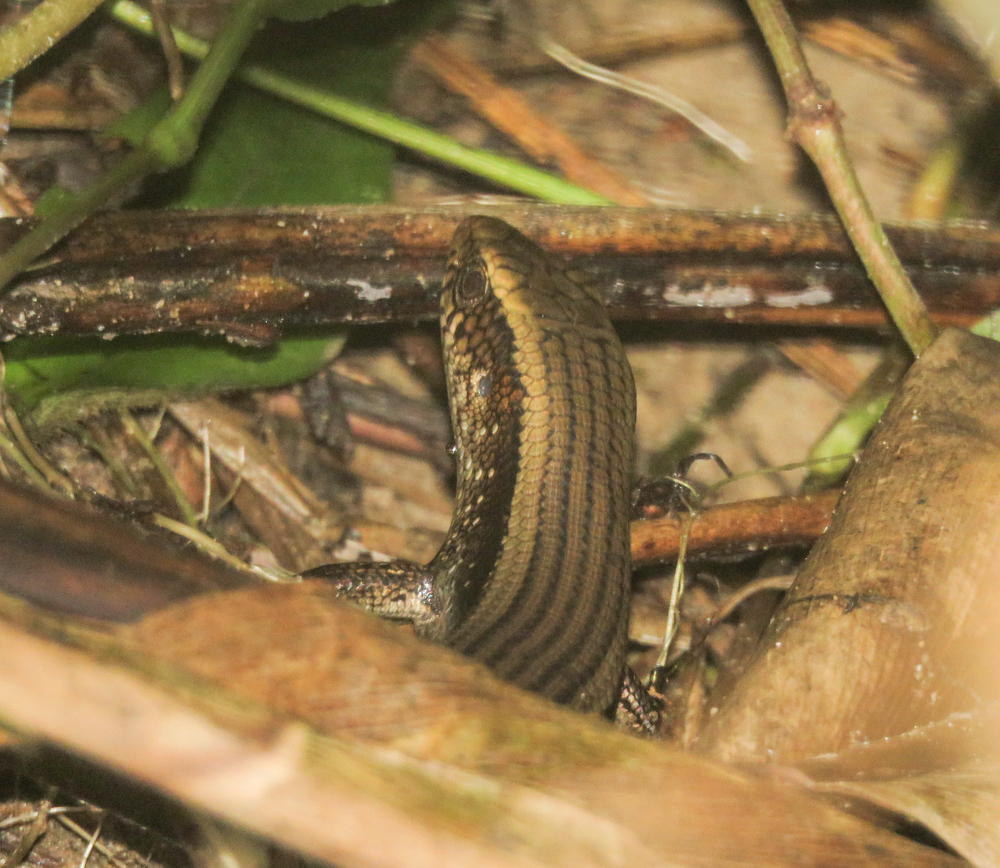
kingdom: Animalia
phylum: Chordata
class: Squamata
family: Scincidae
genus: Eutropis
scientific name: Eutropis multifasciata
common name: Common mabuya
